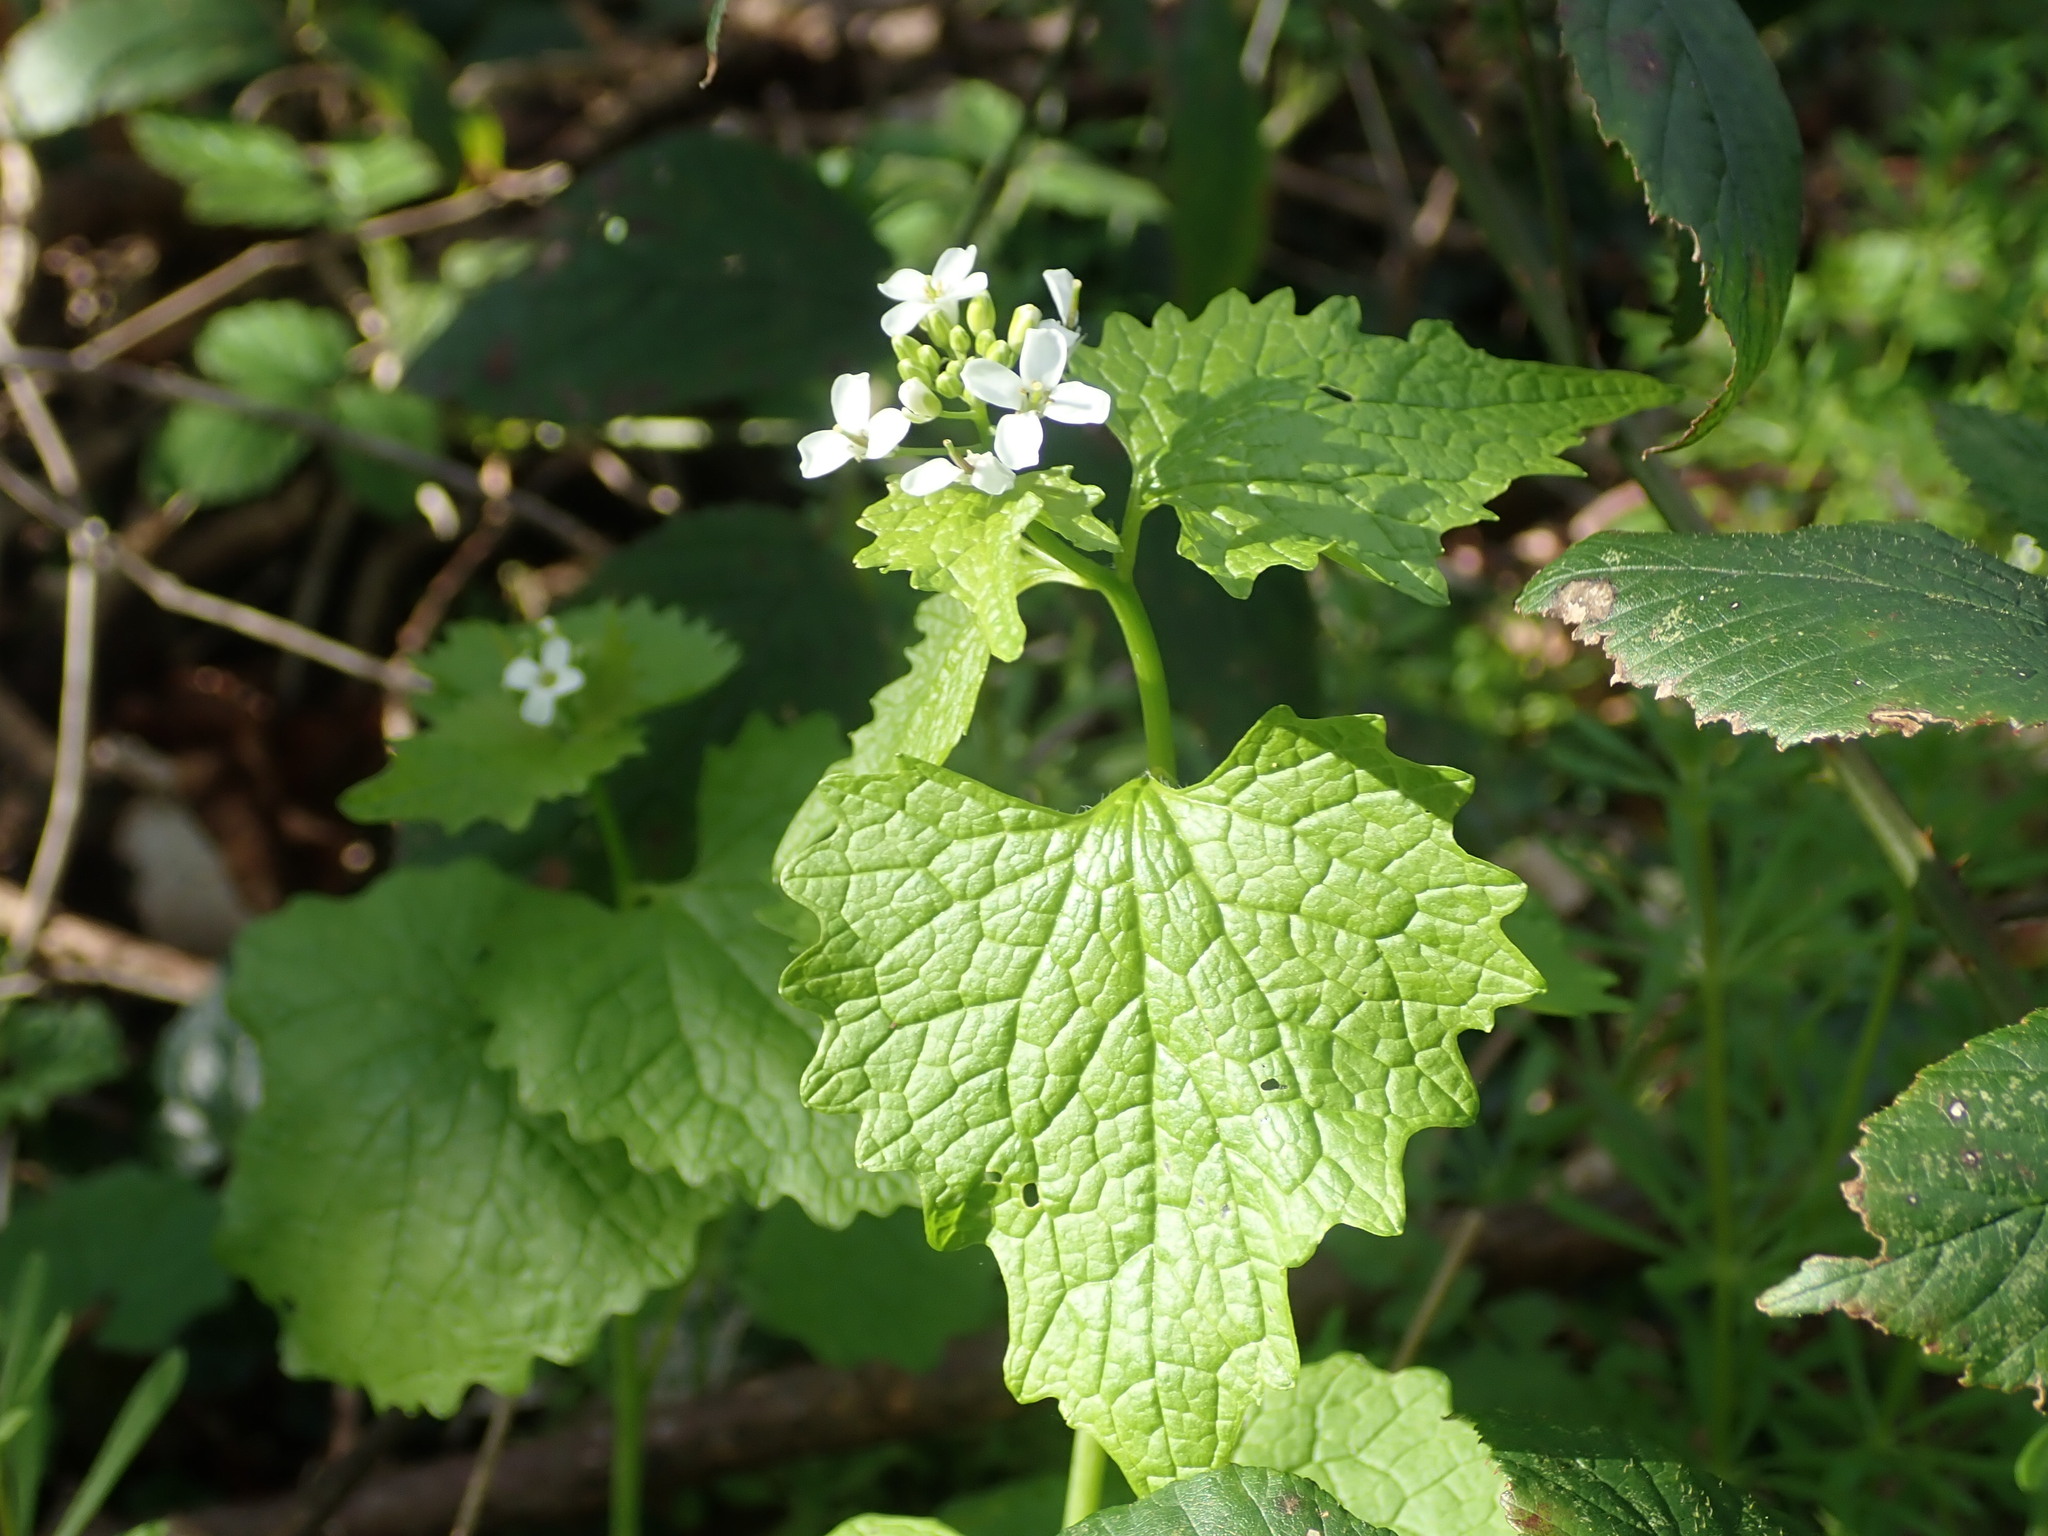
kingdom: Plantae
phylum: Tracheophyta
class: Magnoliopsida
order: Brassicales
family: Brassicaceae
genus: Alliaria
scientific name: Alliaria petiolata
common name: Garlic mustard
